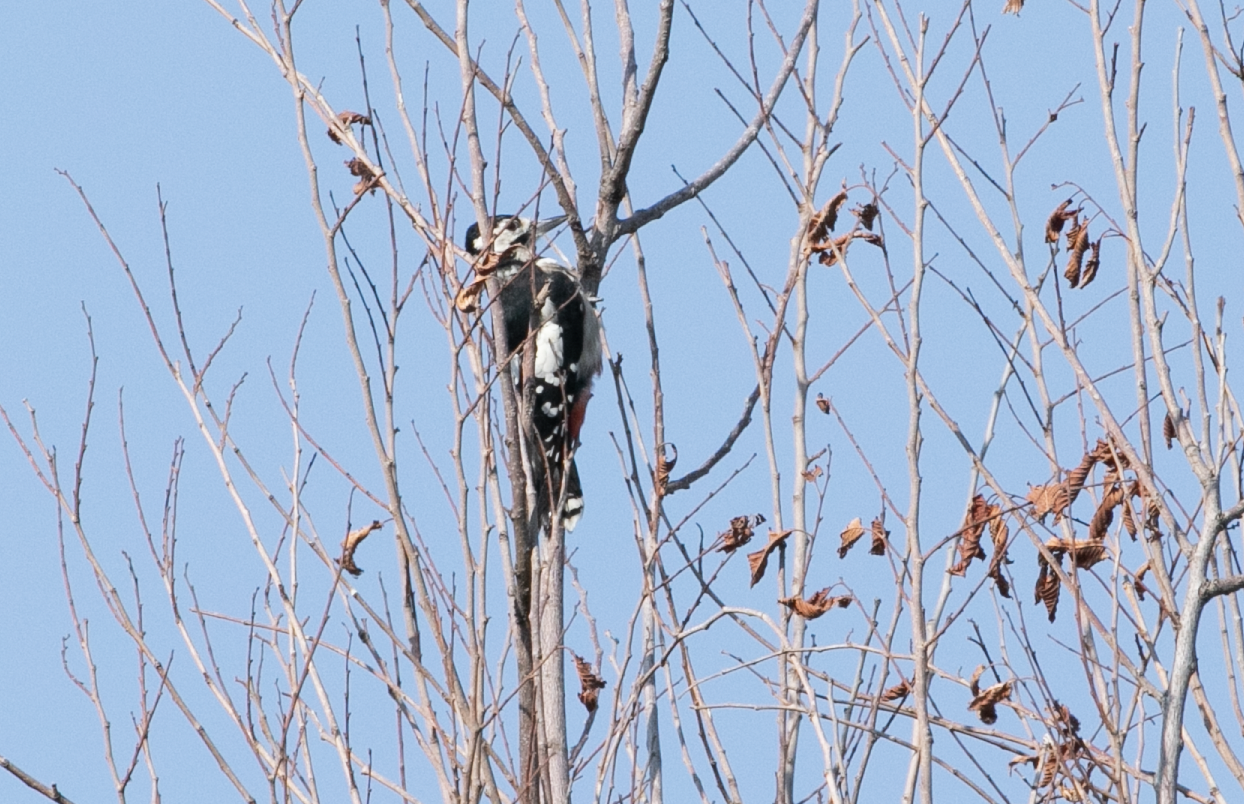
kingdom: Animalia
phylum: Chordata
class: Aves
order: Piciformes
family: Picidae
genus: Dendrocopos
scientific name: Dendrocopos major
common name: Great spotted woodpecker
